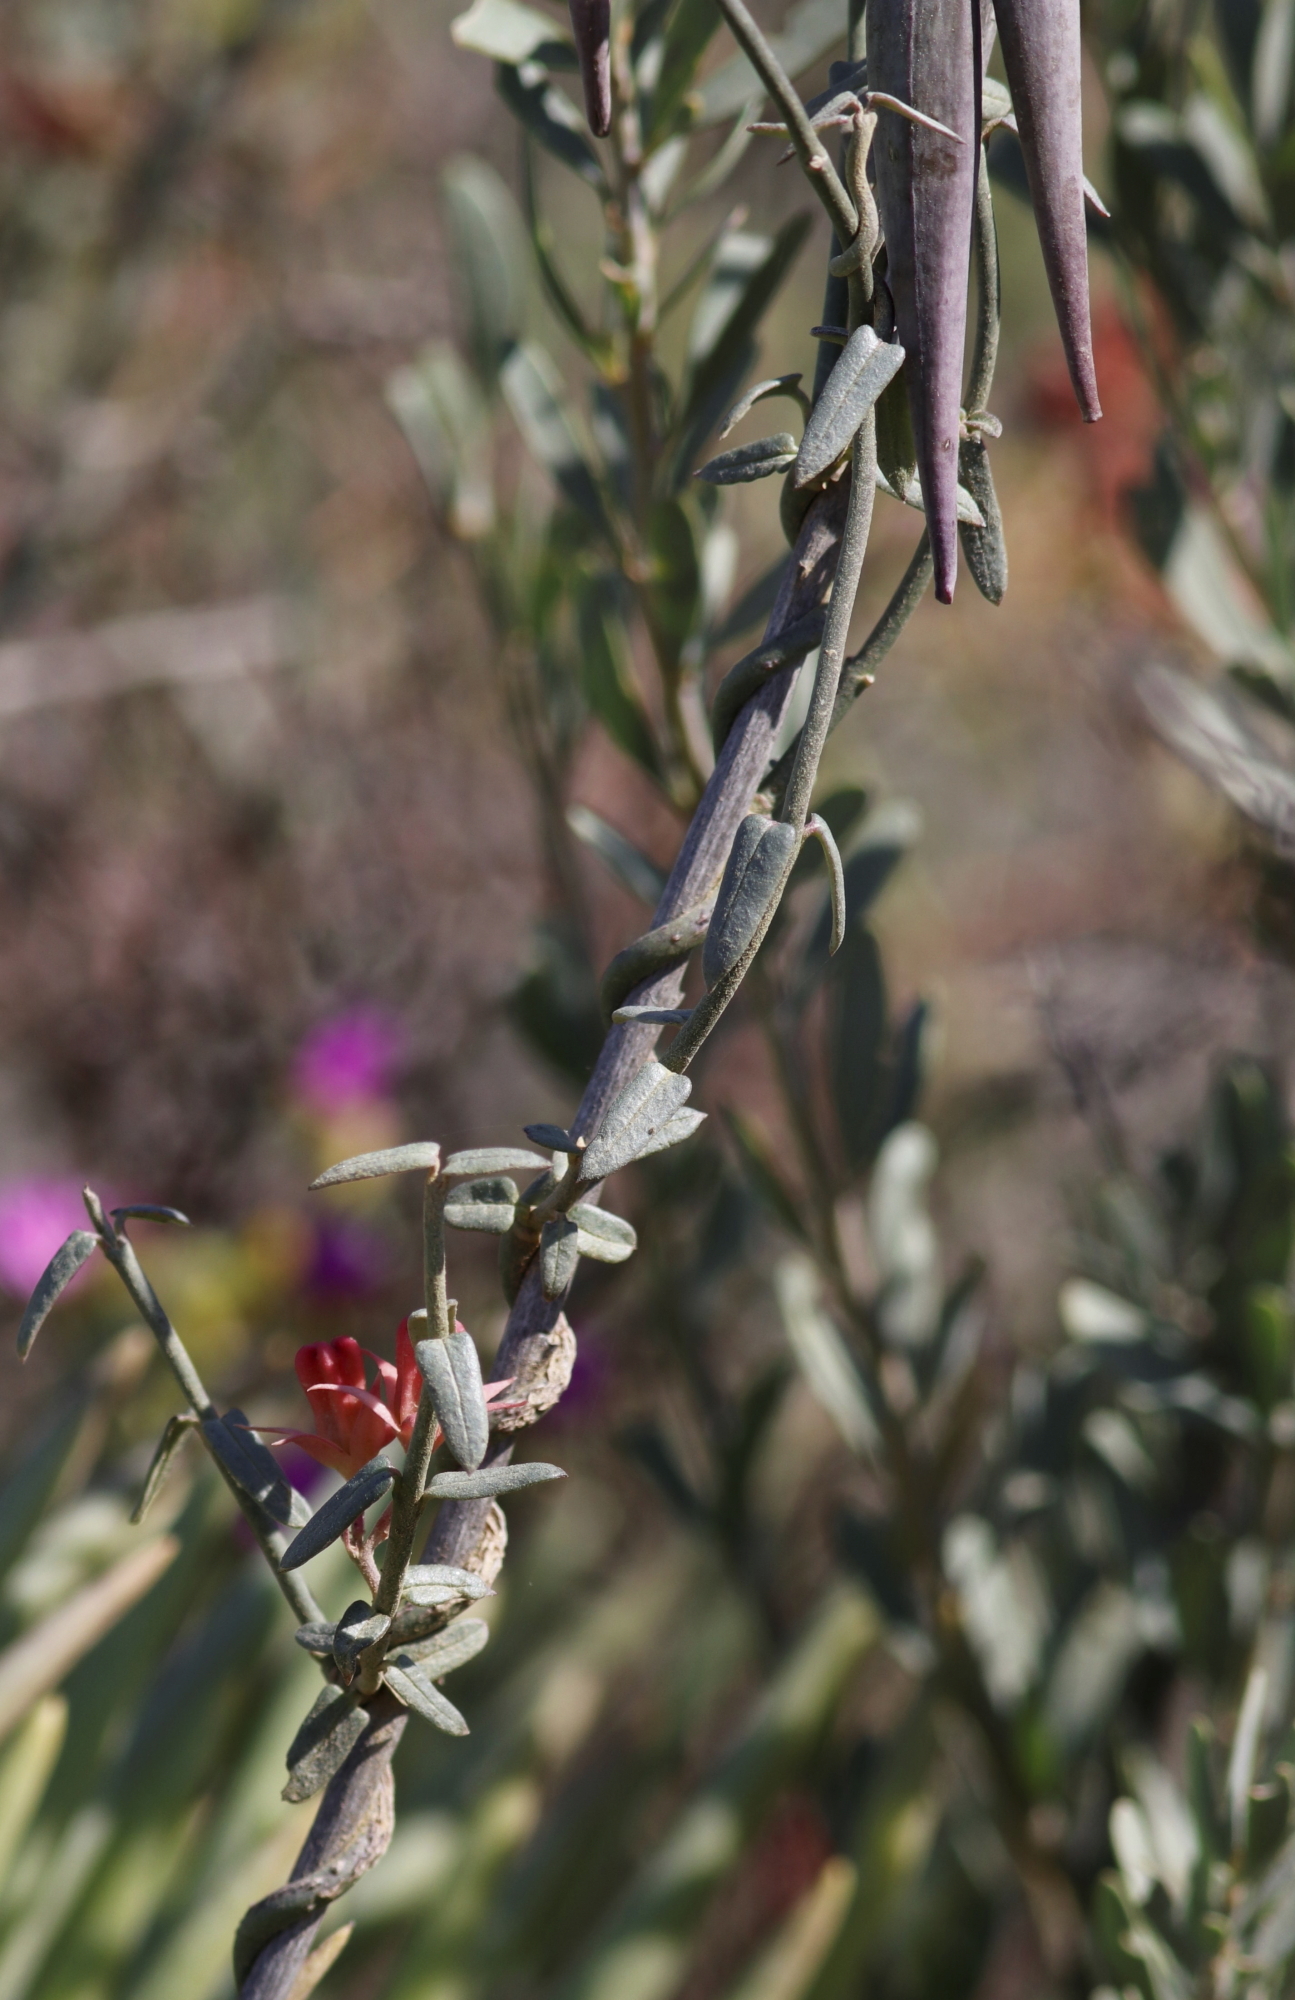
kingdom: Plantae
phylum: Tracheophyta
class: Magnoliopsida
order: Gentianales
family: Apocynaceae
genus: Microloma
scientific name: Microloma sagittatum
